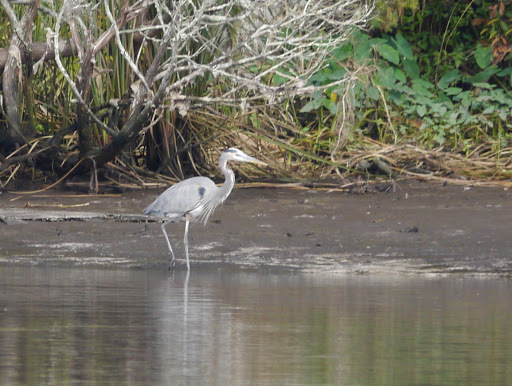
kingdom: Animalia
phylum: Chordata
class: Aves
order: Pelecaniformes
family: Ardeidae
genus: Ardea
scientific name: Ardea herodias
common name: Great blue heron
